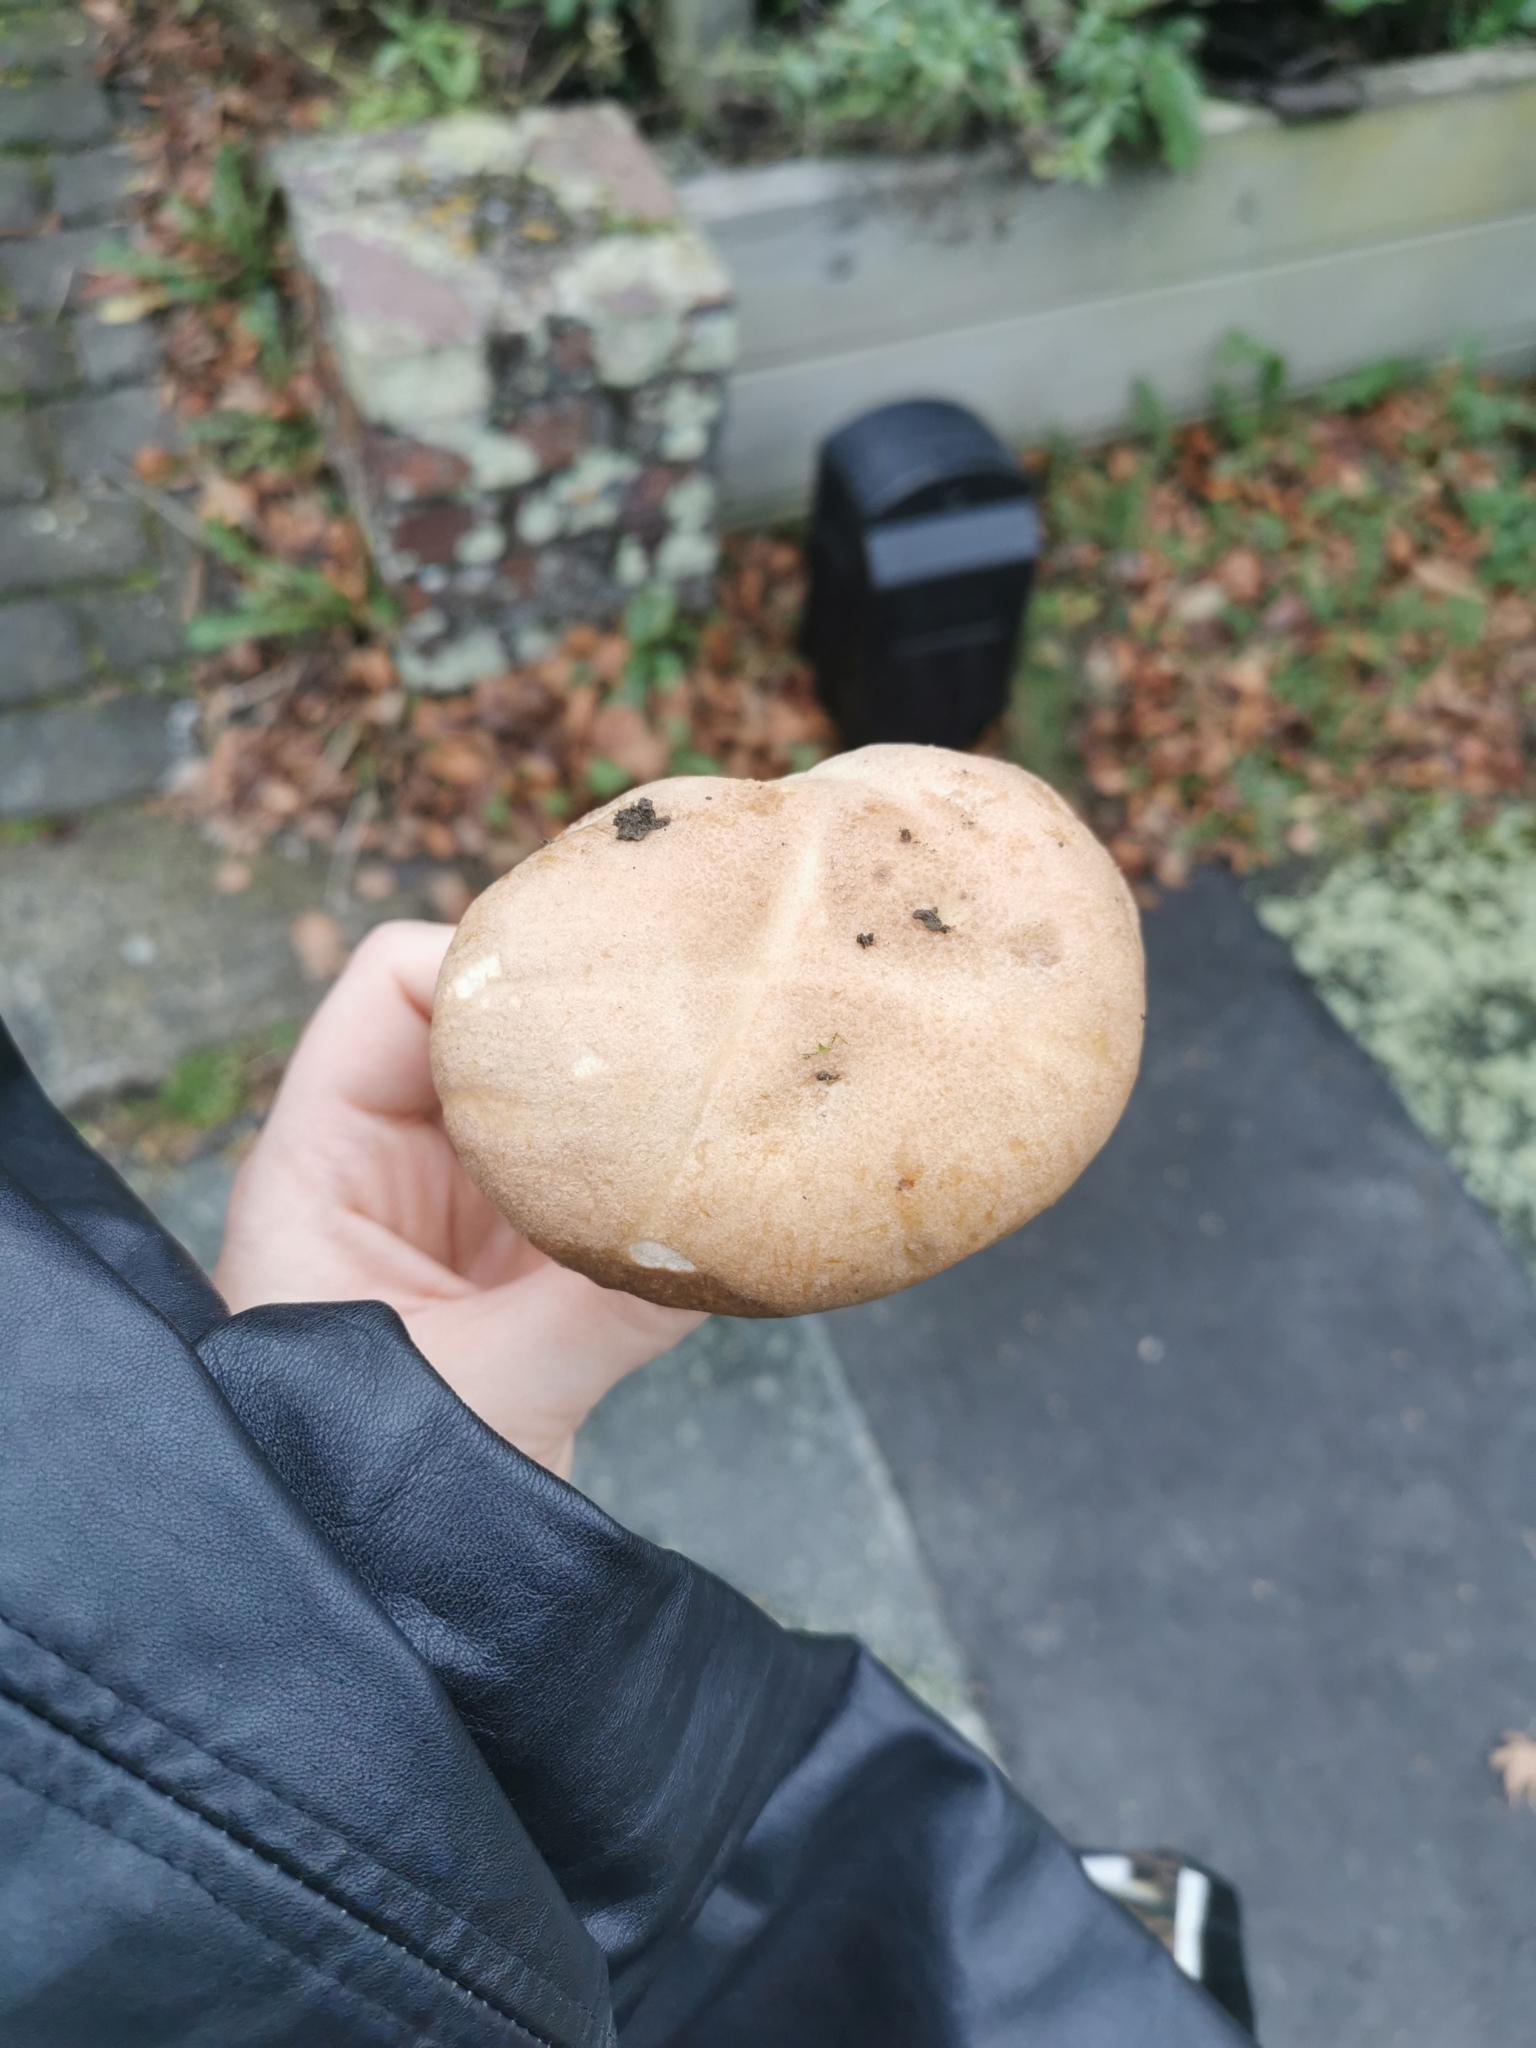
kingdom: Fungi
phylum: Basidiomycota
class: Agaricomycetes
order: Boletales
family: Boletaceae
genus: Leccinum
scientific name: Leccinum scabrum
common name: Blushing bolete
